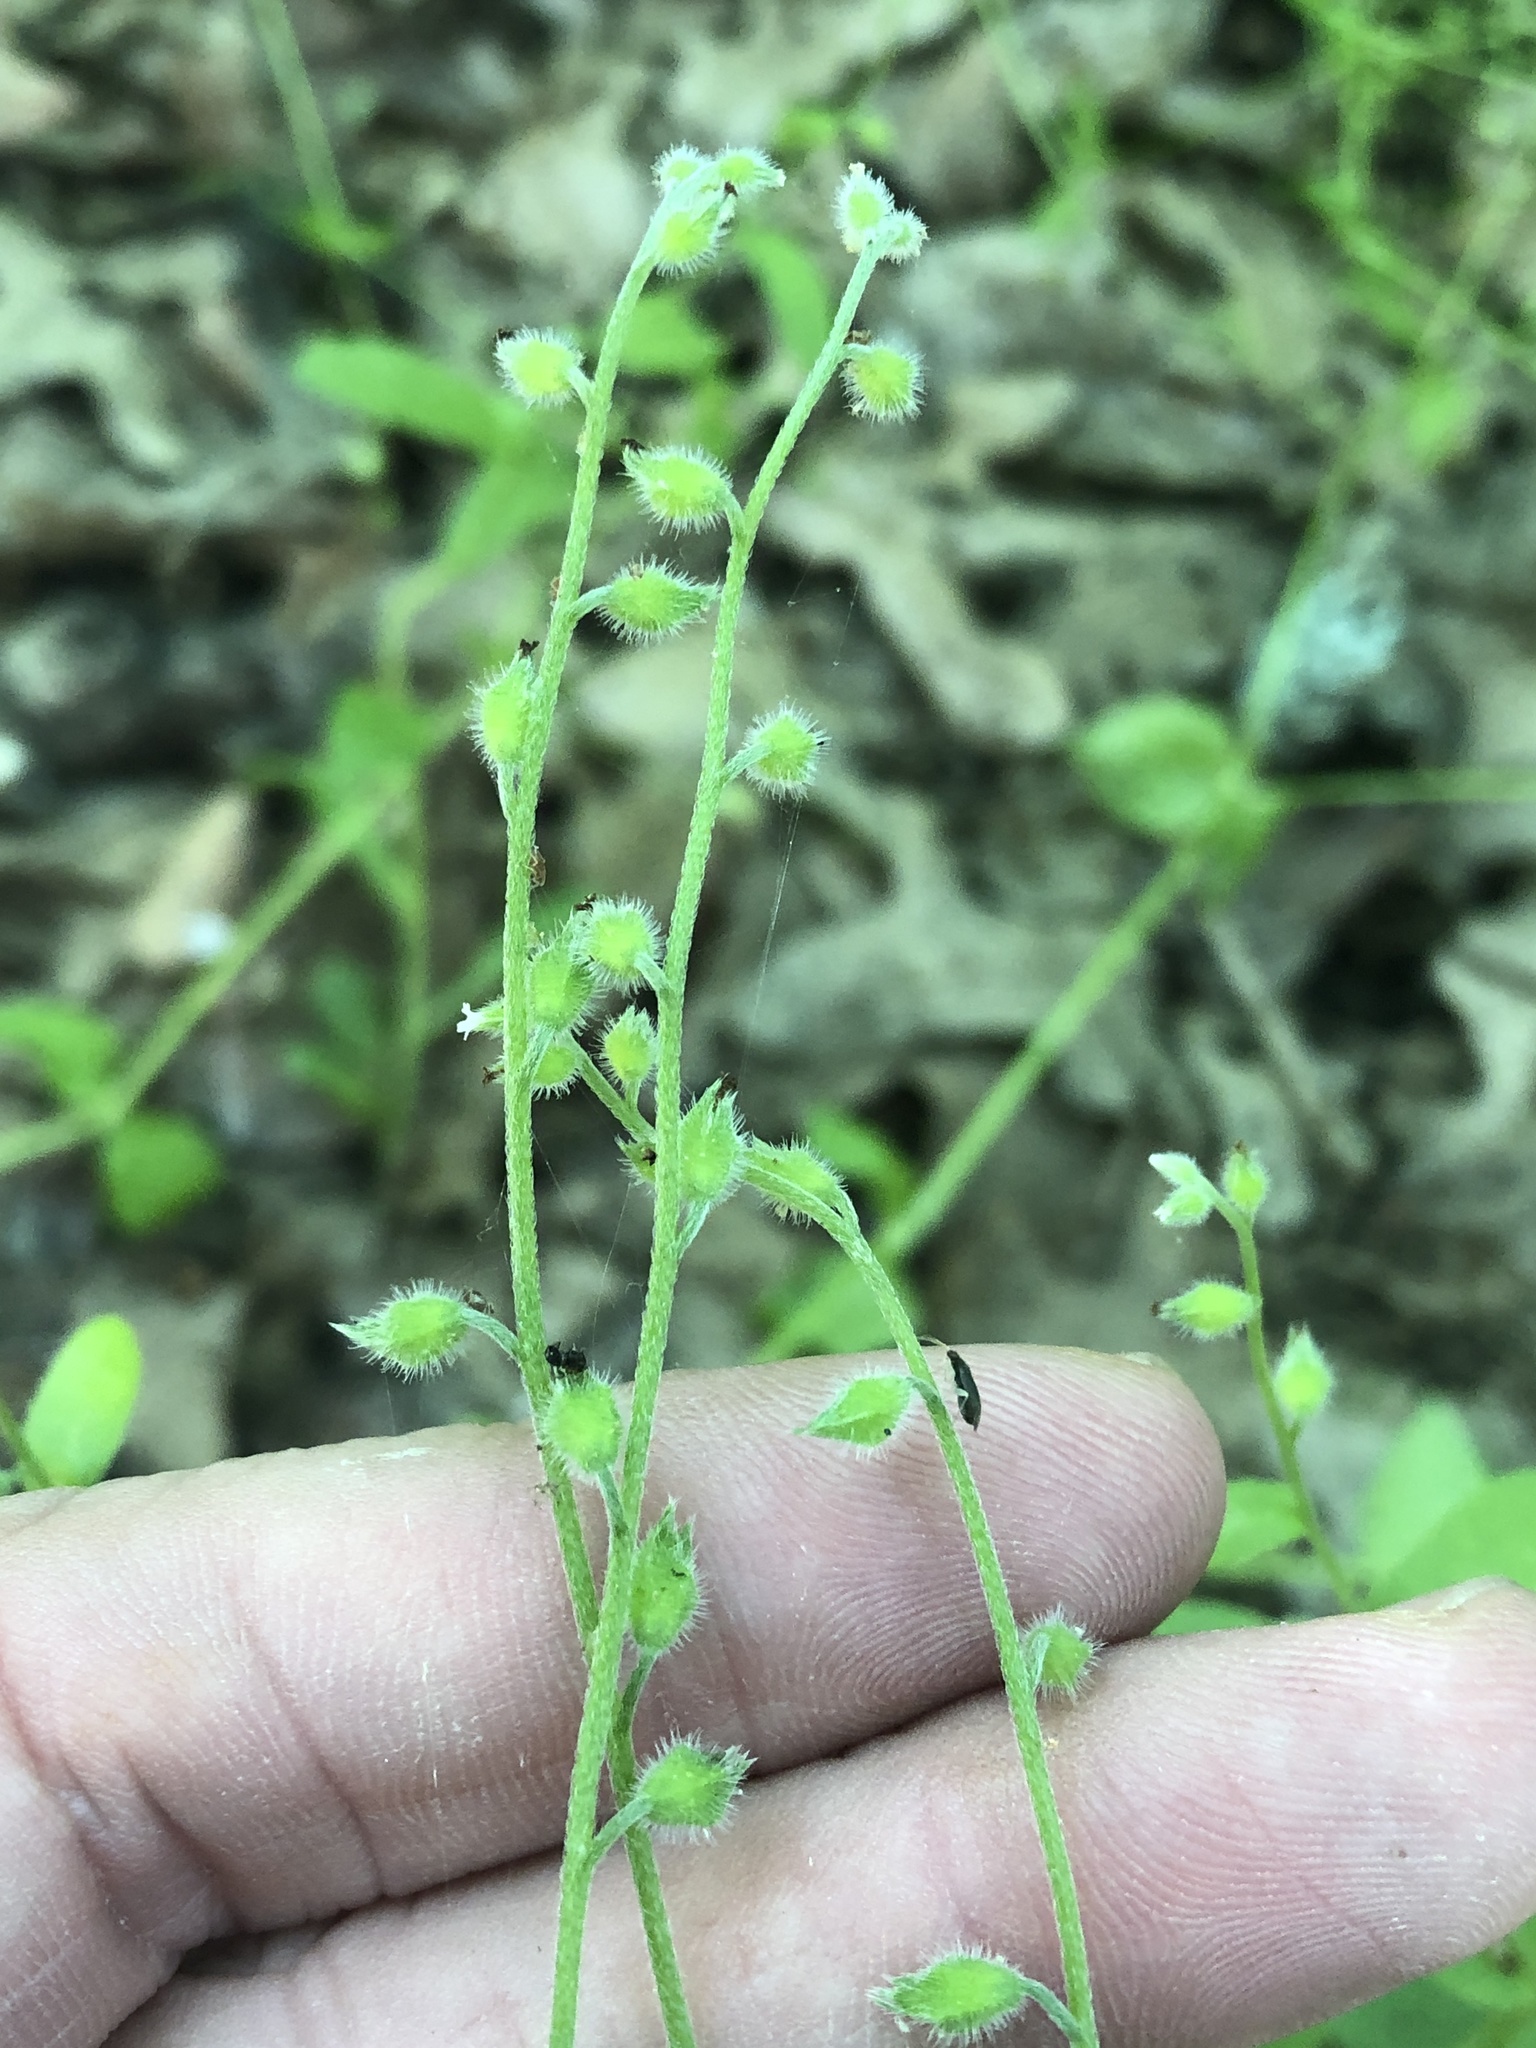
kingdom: Plantae
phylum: Tracheophyta
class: Magnoliopsida
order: Boraginales
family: Boraginaceae
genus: Myosotis
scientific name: Myosotis macrosperma
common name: Large-seed forget-me-not
